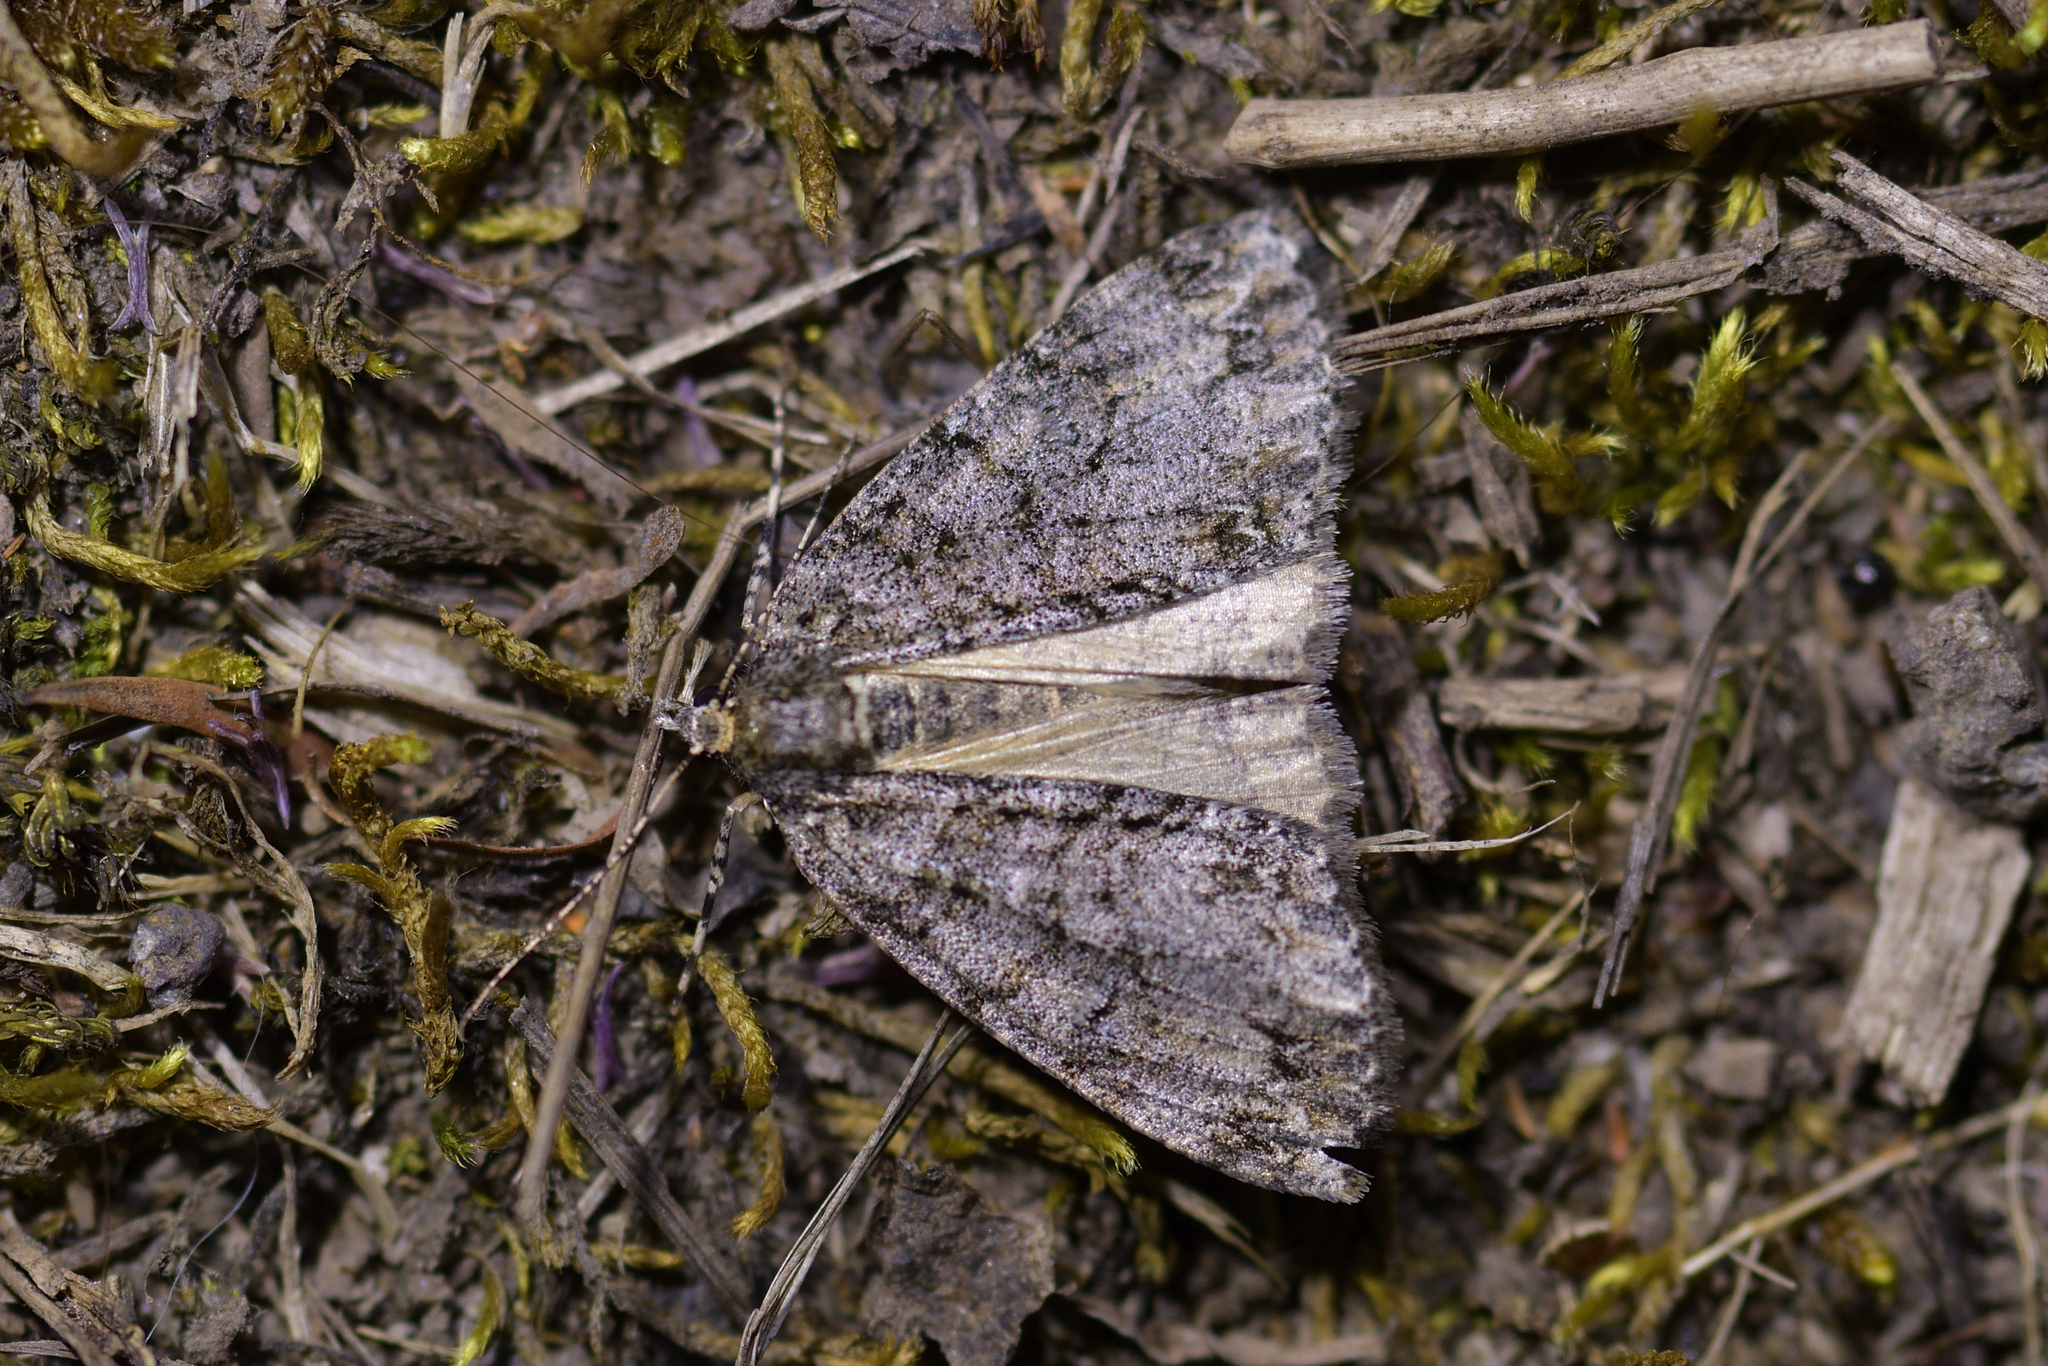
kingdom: Animalia
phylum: Arthropoda
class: Insecta
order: Lepidoptera
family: Geometridae
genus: Pseudocoremia
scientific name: Pseudocoremia suavis
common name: Common forest looper
